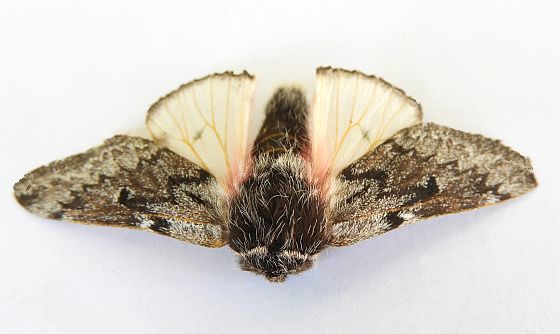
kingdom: Animalia
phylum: Arthropoda
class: Insecta
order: Lepidoptera
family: Saturniidae
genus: Coloradia
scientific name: Coloradia luski
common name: Lusk's pinemoth
